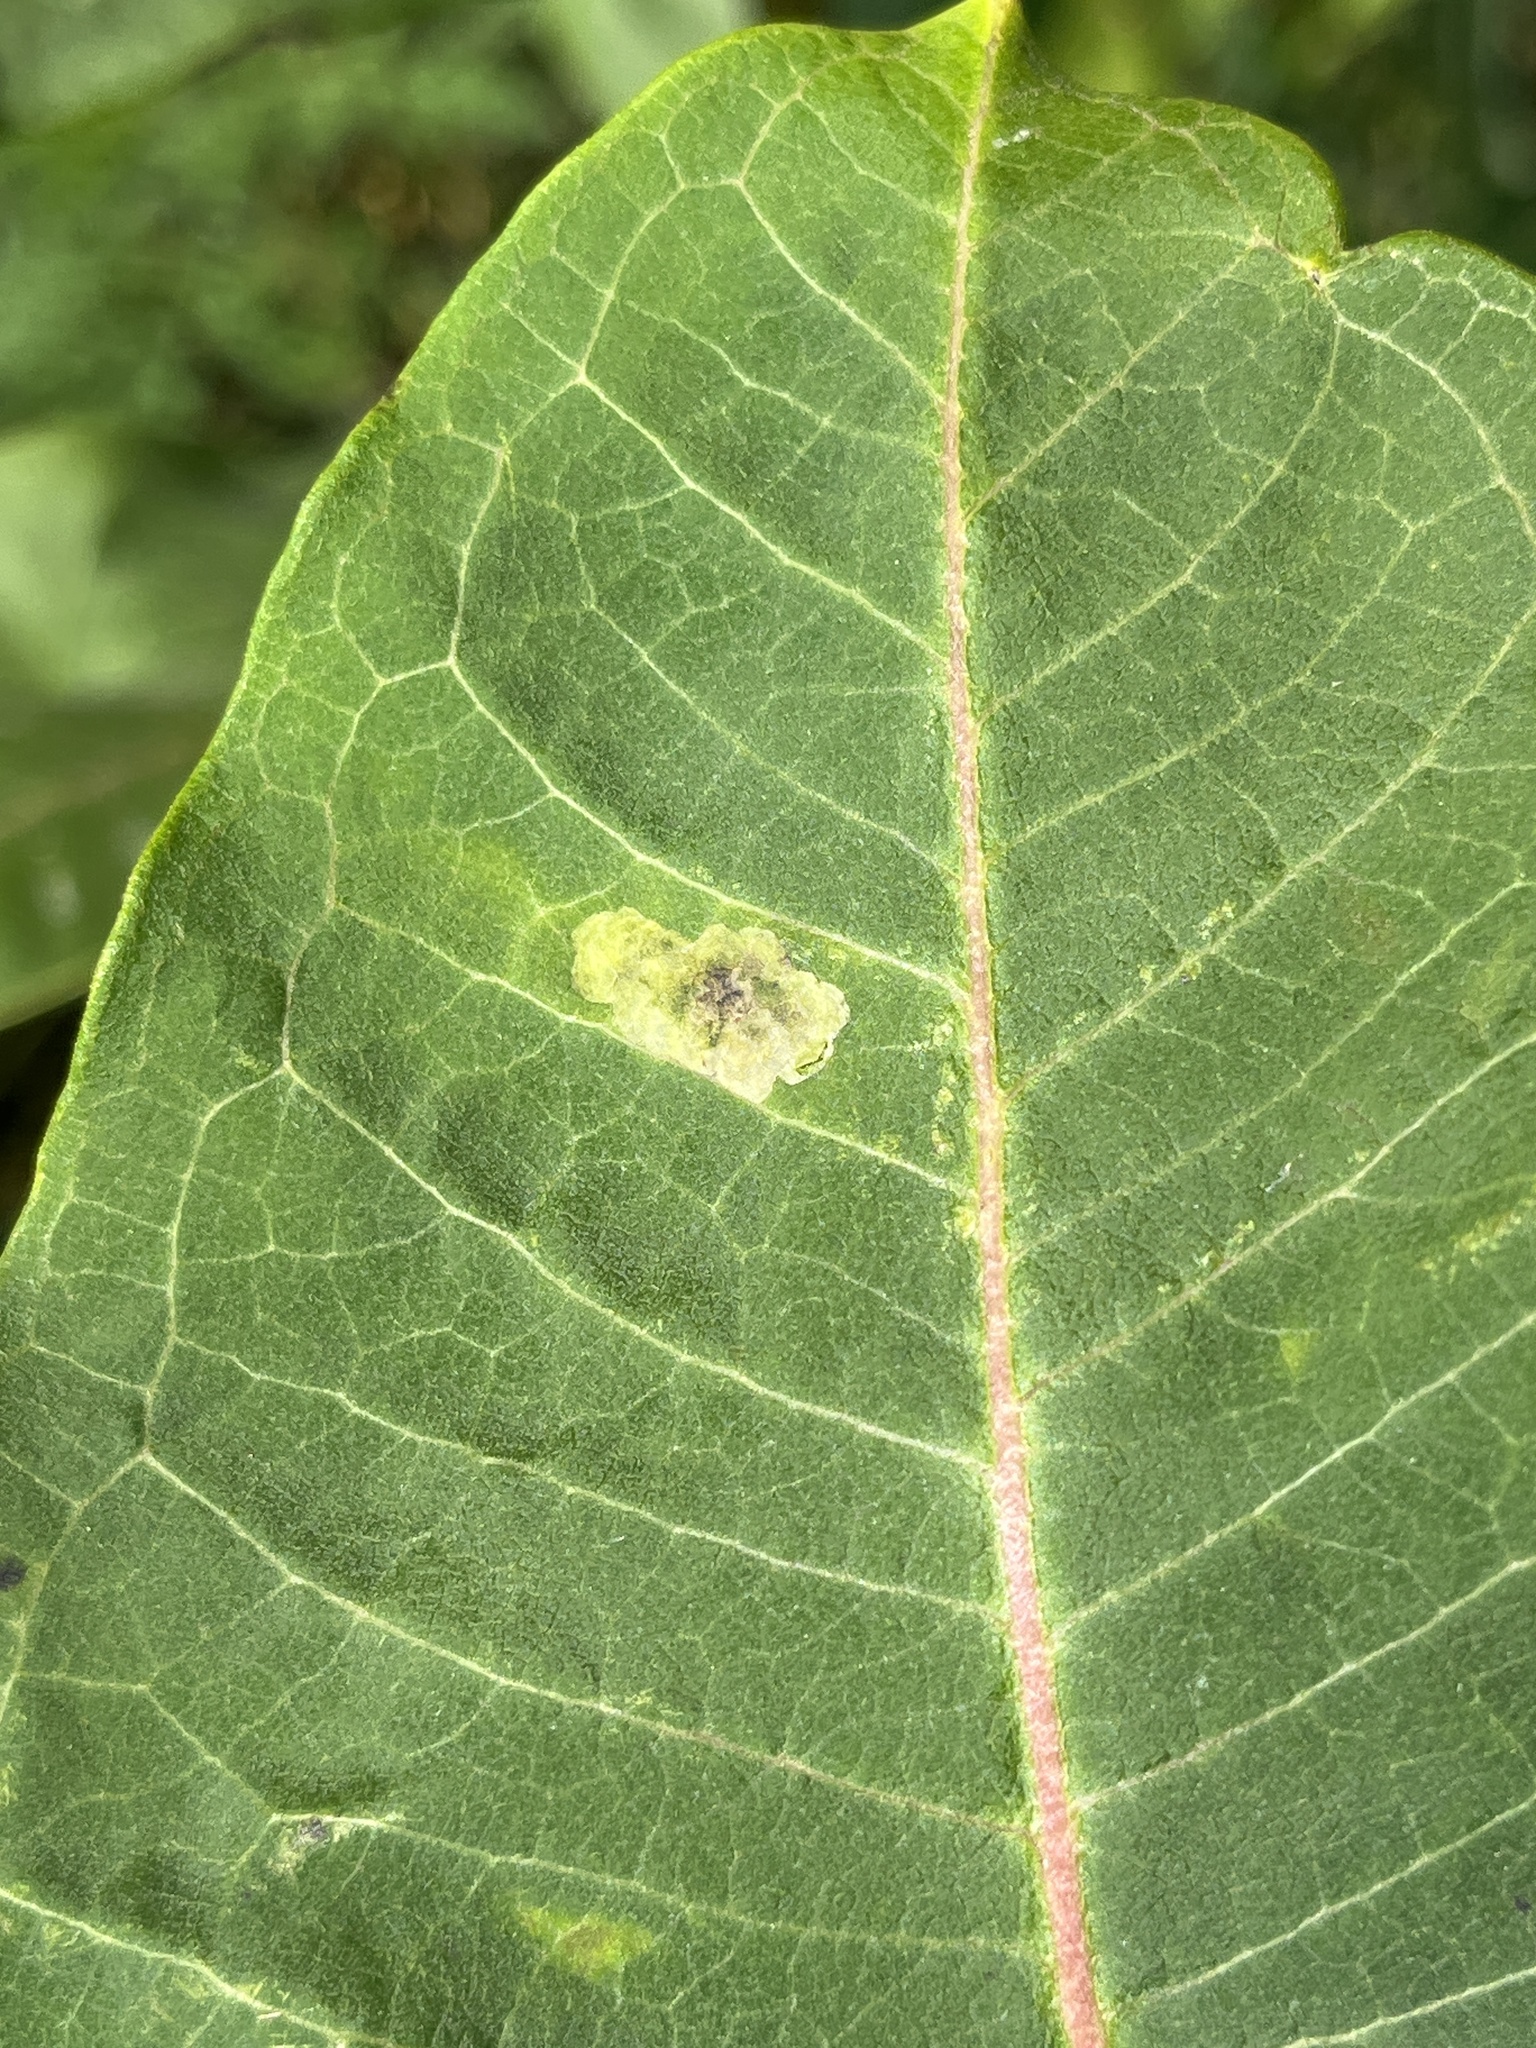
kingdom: Animalia
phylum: Arthropoda
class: Insecta
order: Diptera
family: Agromyzidae
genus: Liriomyza
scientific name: Liriomyza asclepiadis
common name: Milkweed leaf-miner fly
